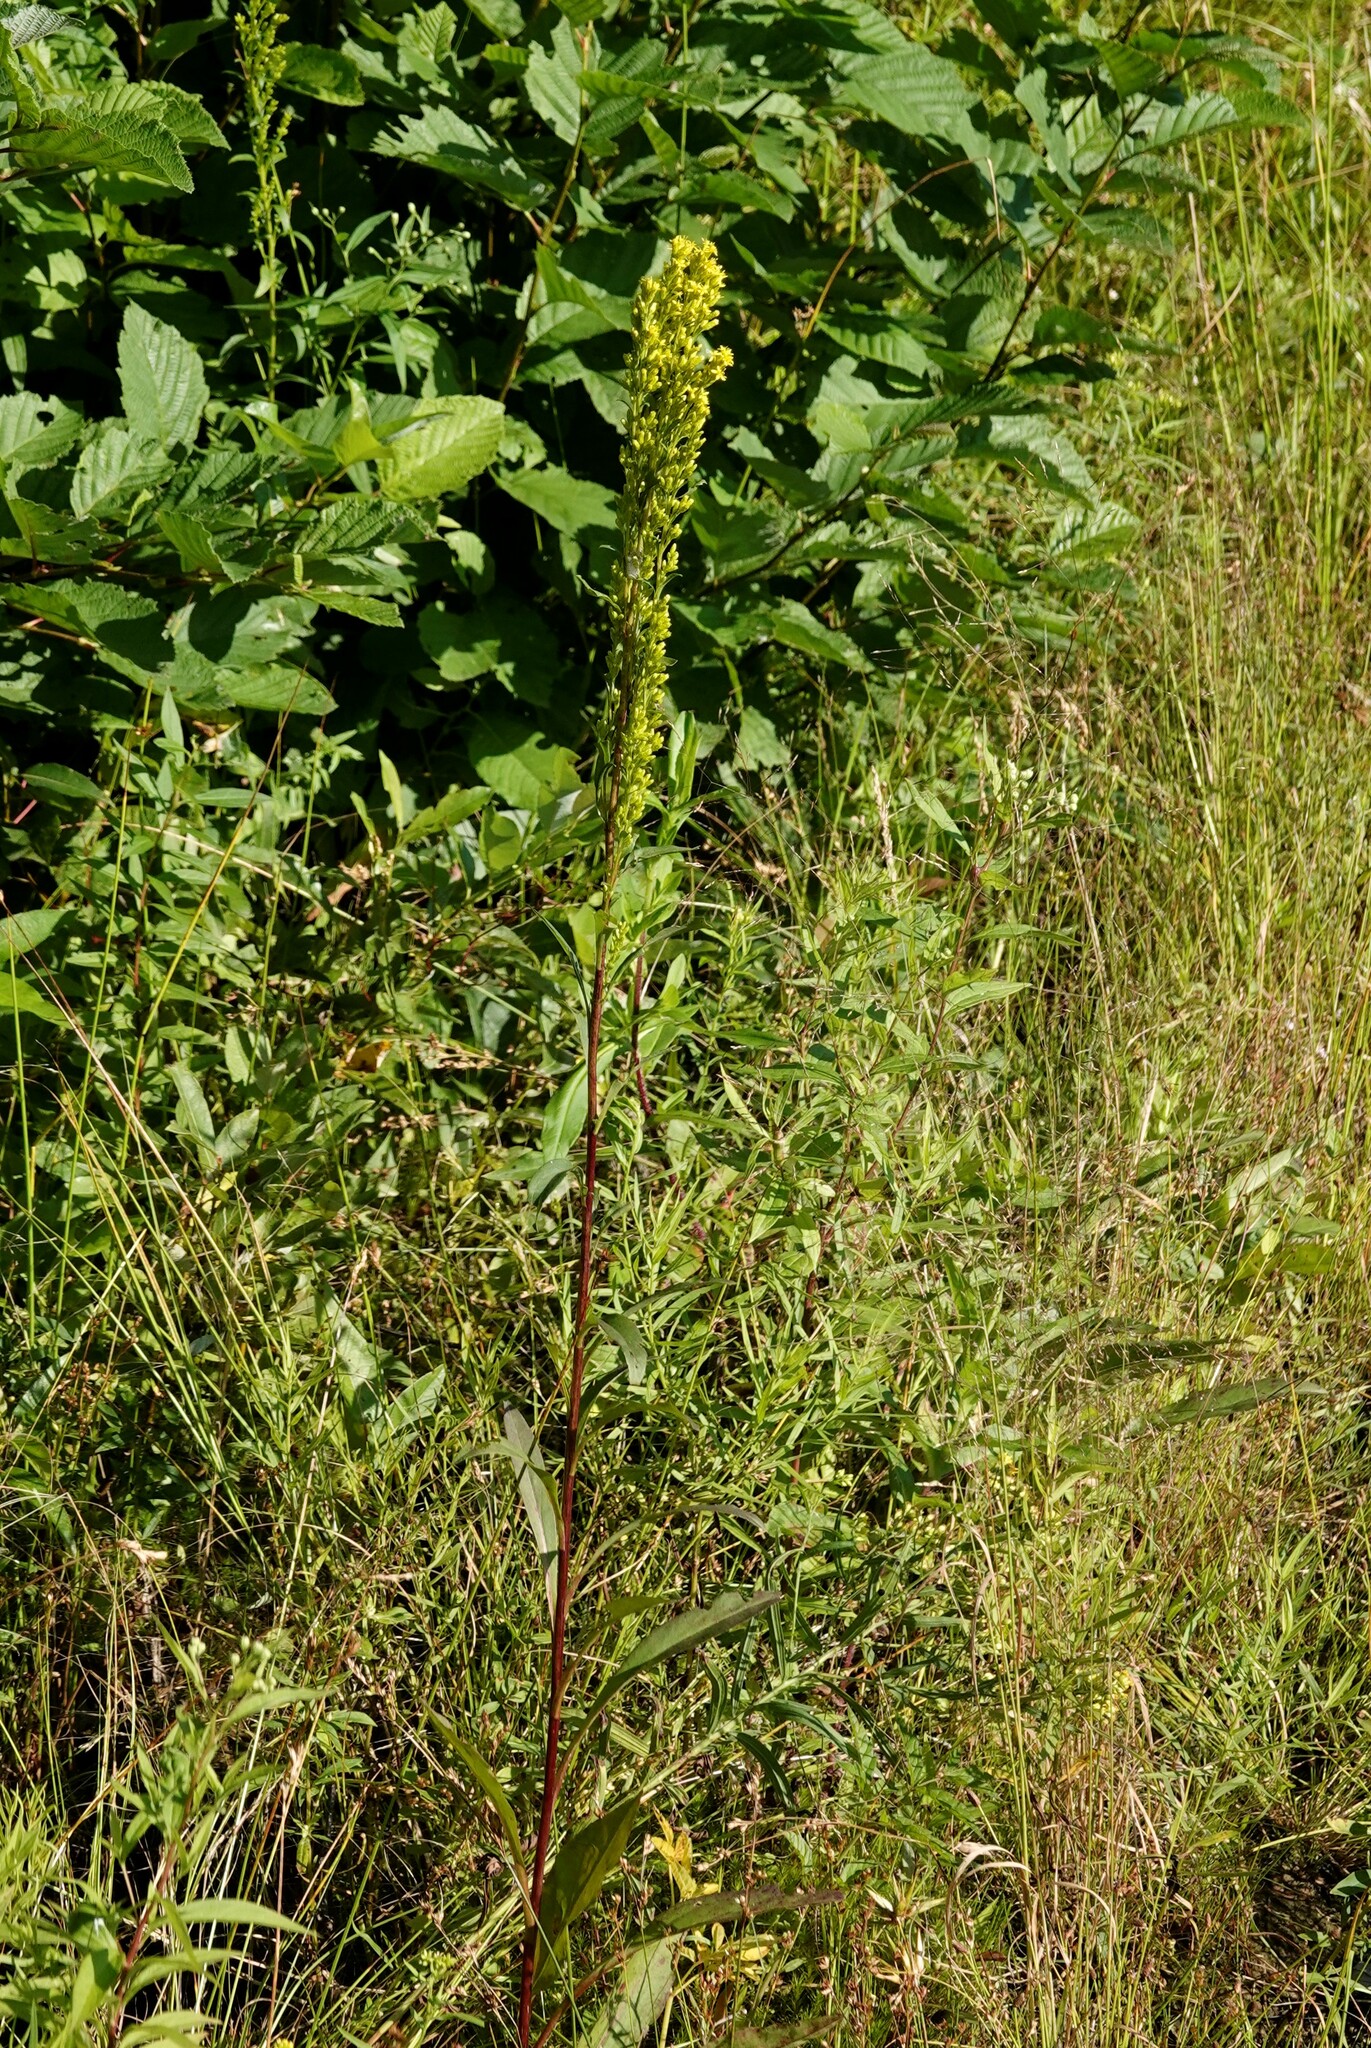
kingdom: Plantae
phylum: Tracheophyta
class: Magnoliopsida
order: Asterales
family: Asteraceae
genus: Solidago
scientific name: Solidago uliginosa
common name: Bog goldenrod
